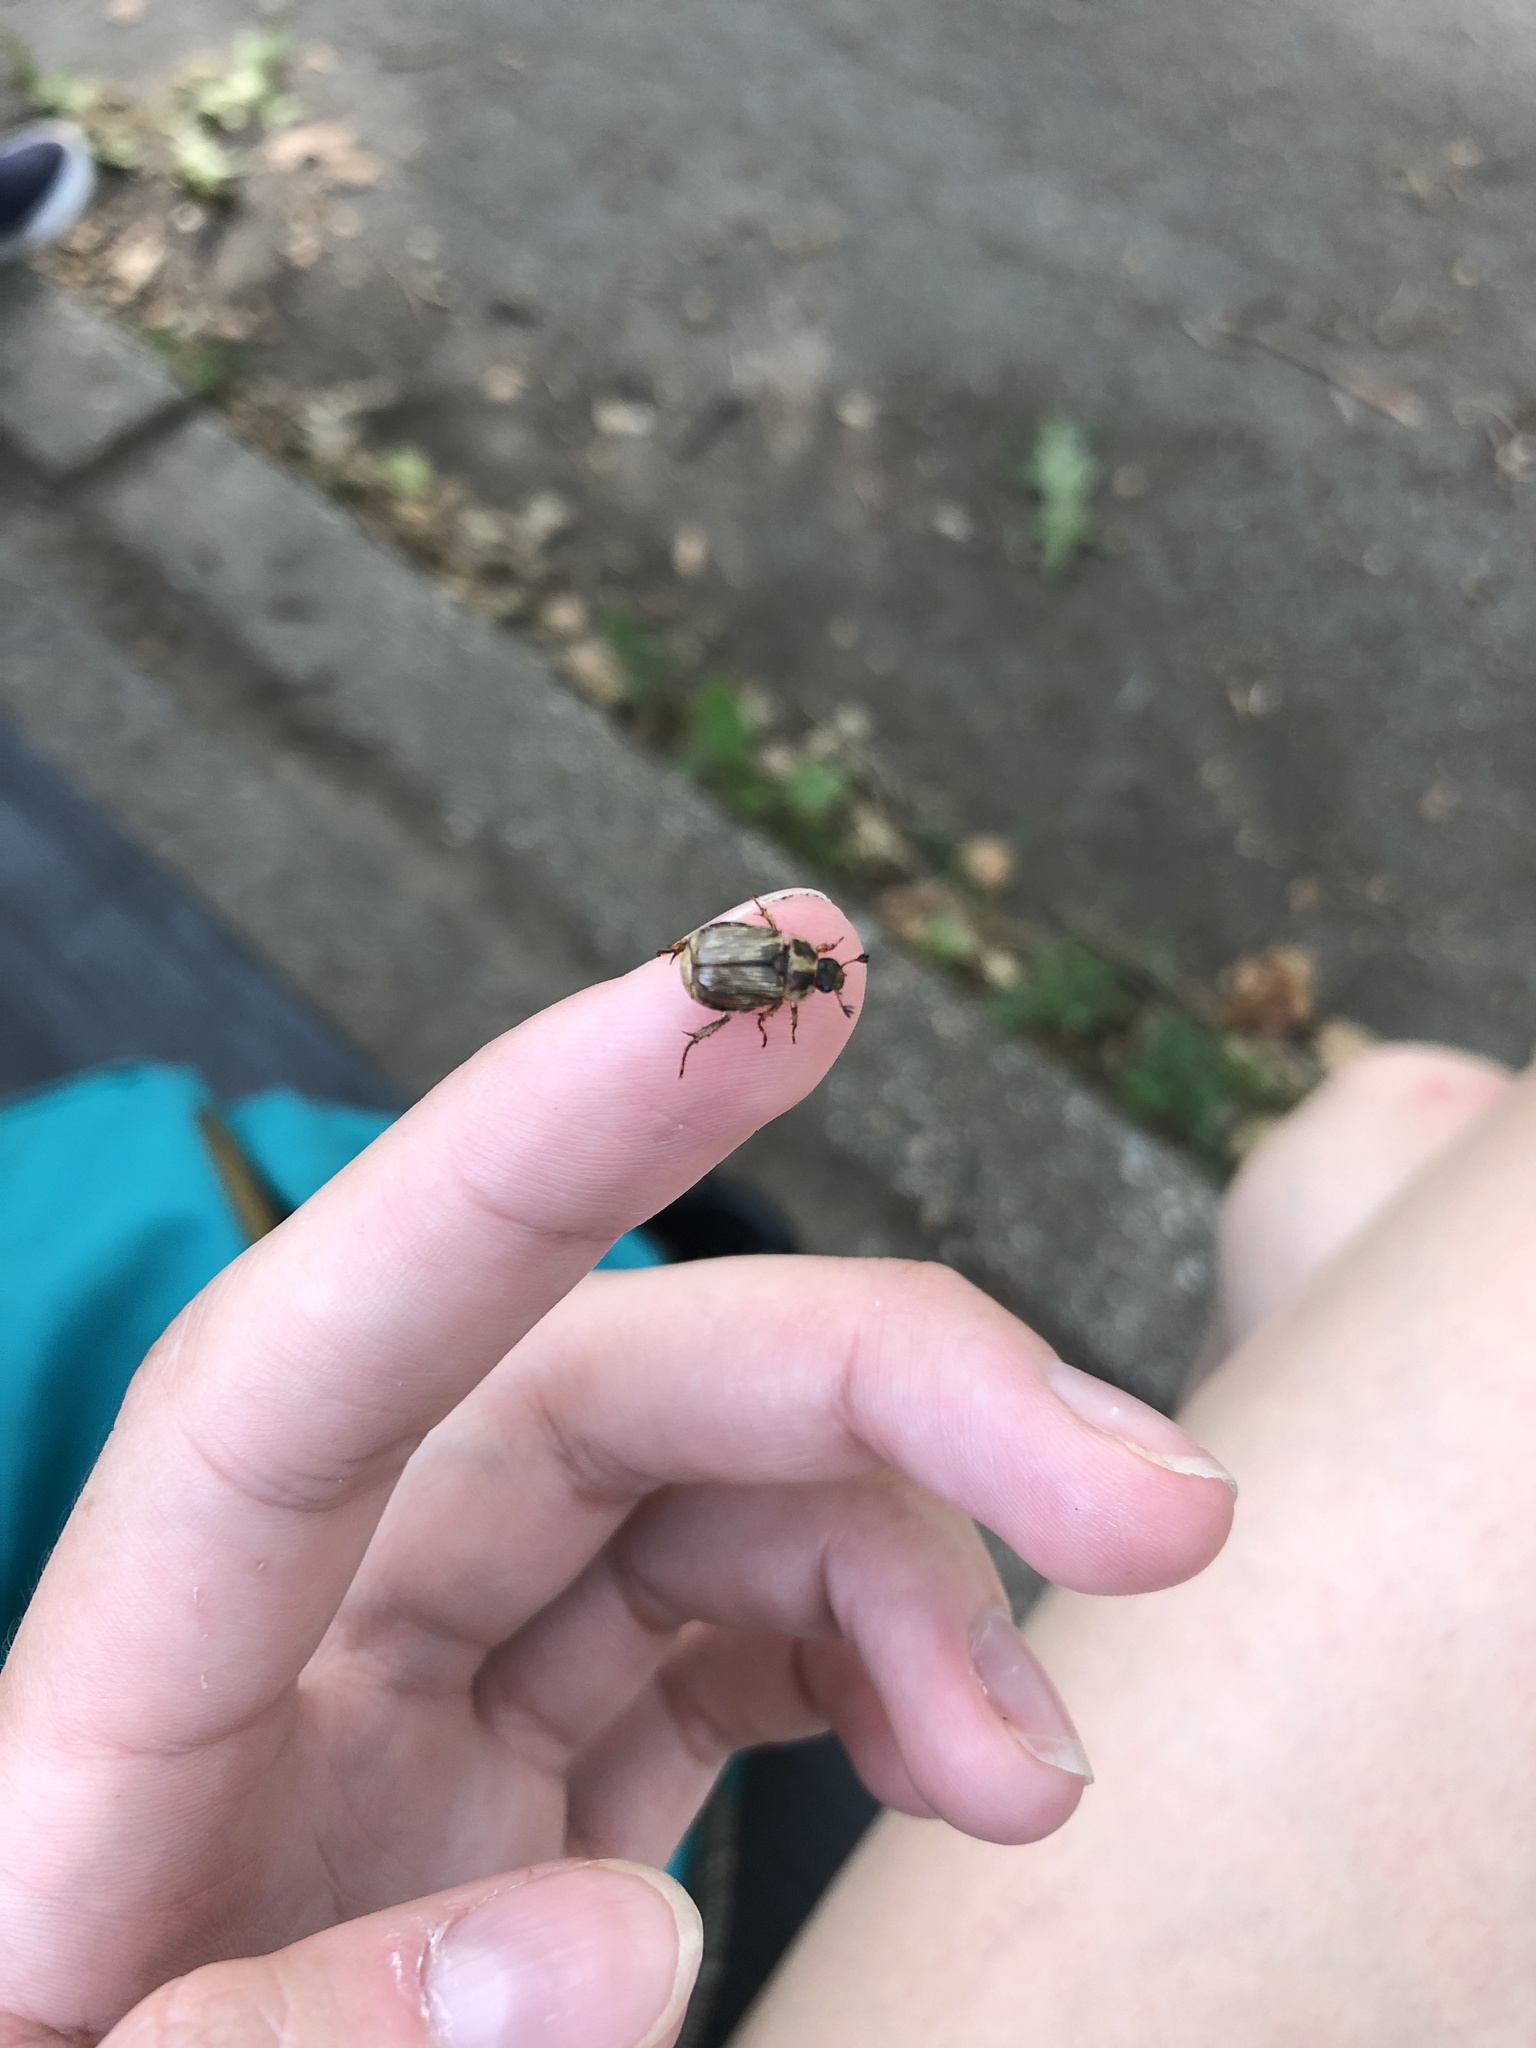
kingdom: Animalia
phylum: Arthropoda
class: Insecta
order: Coleoptera
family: Scarabaeidae
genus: Exomala
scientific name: Exomala orientalis
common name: Oriental beetle
